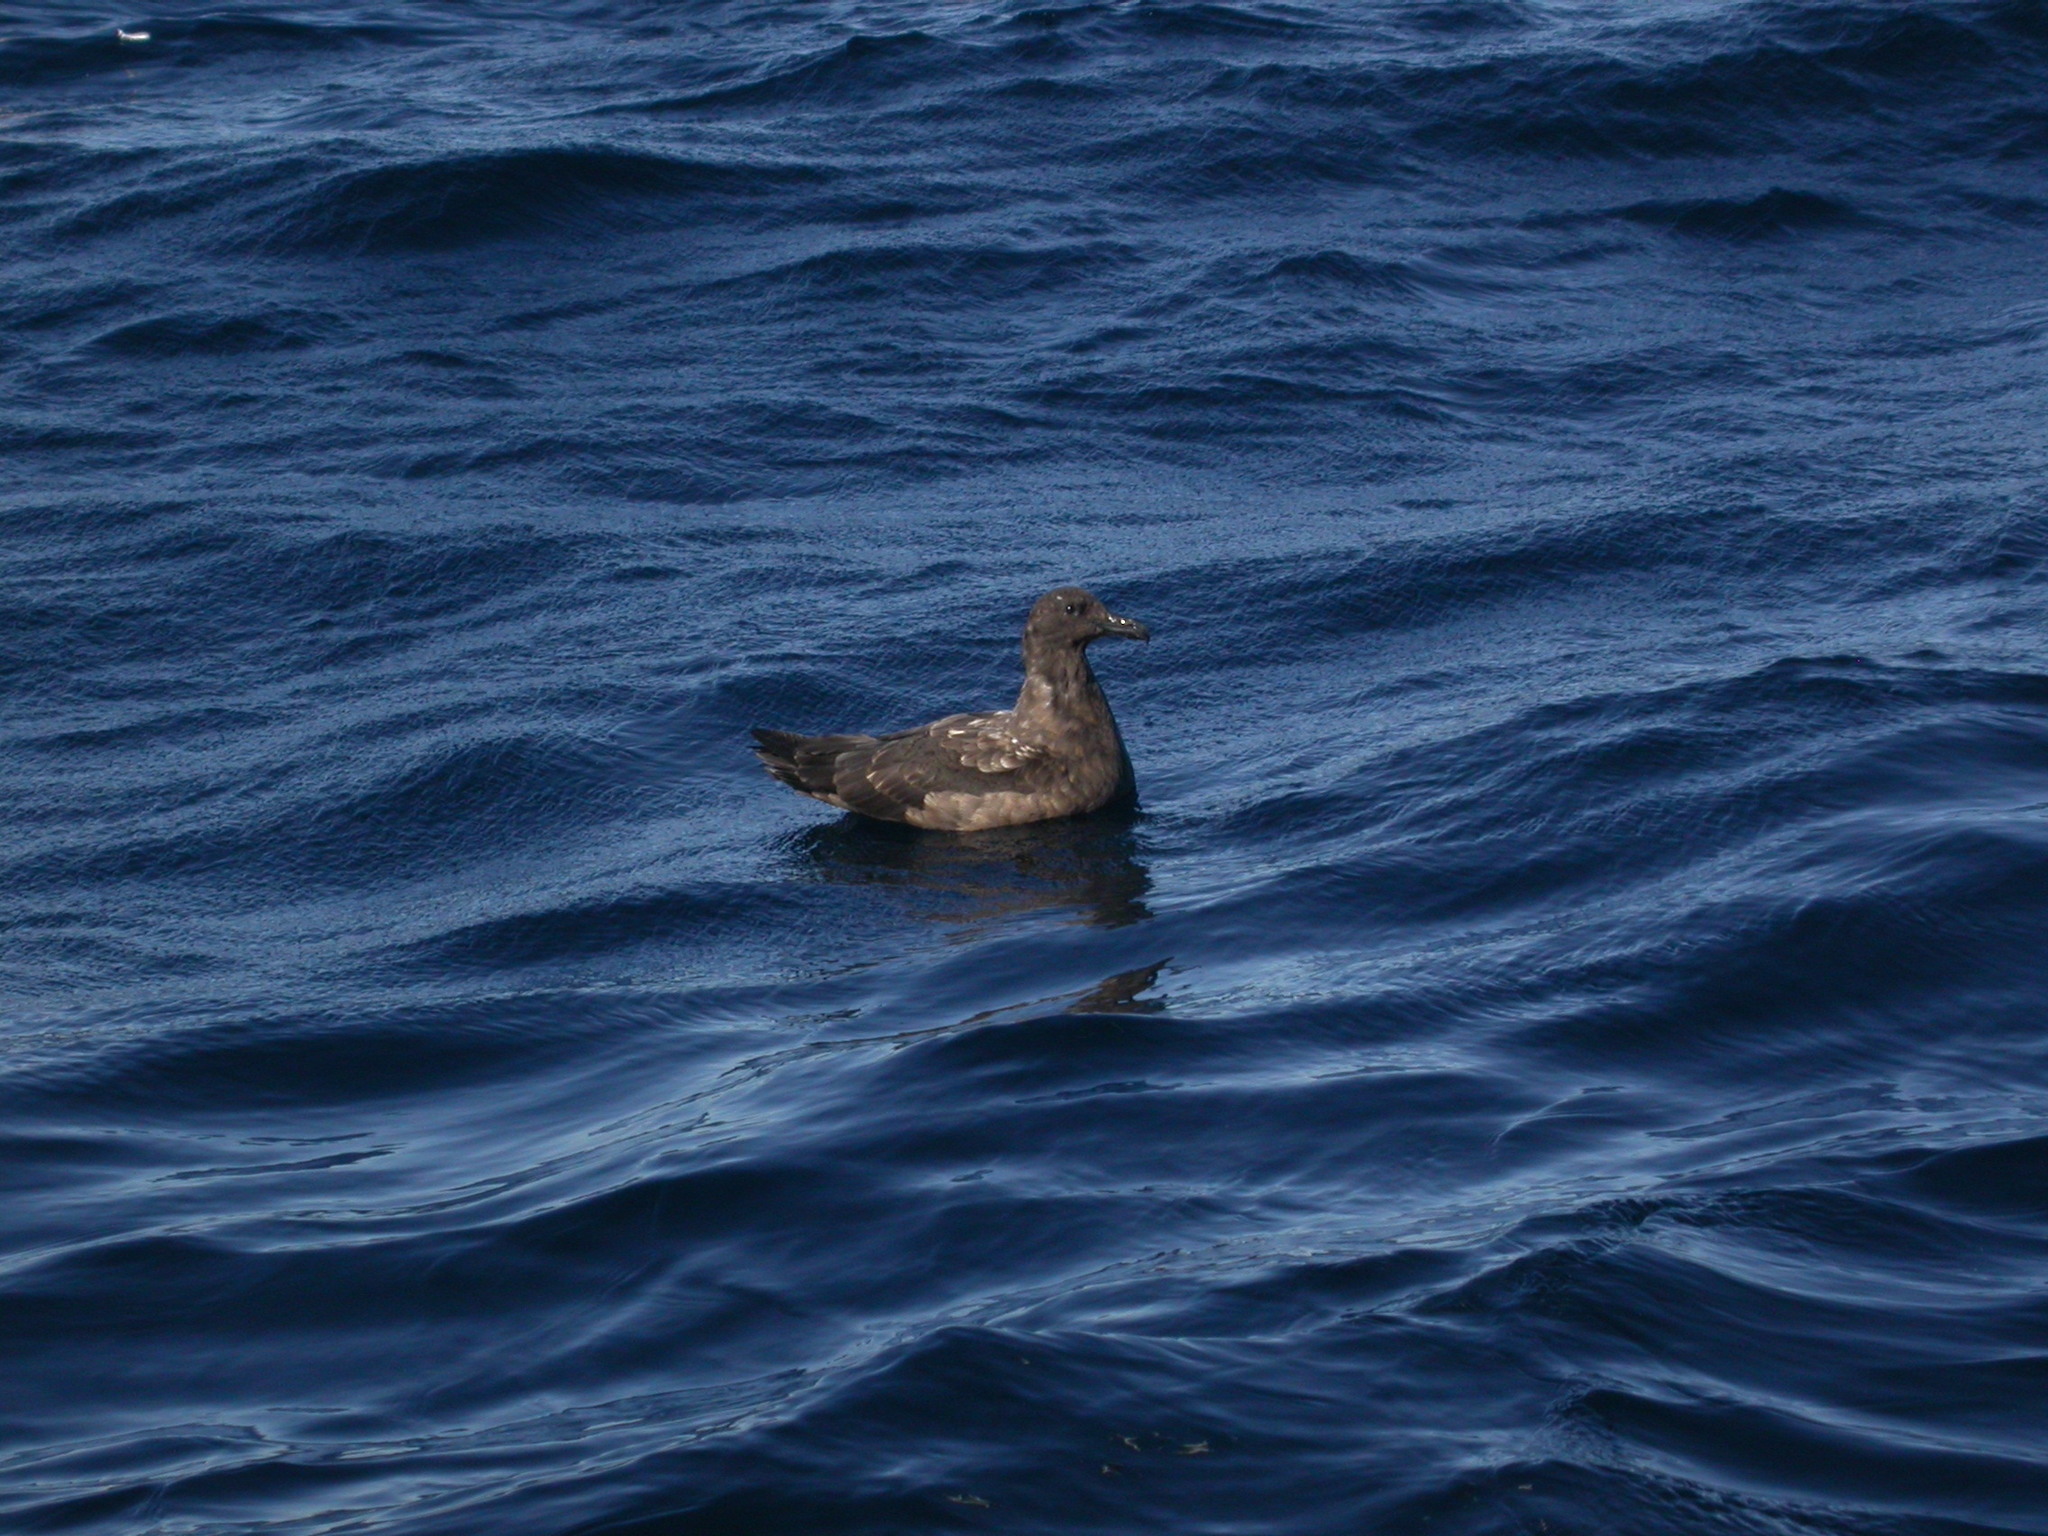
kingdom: Animalia
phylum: Chordata
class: Aves
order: Charadriiformes
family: Stercorariidae
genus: Stercorarius
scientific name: Stercorarius antarcticus
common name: Brown skua
